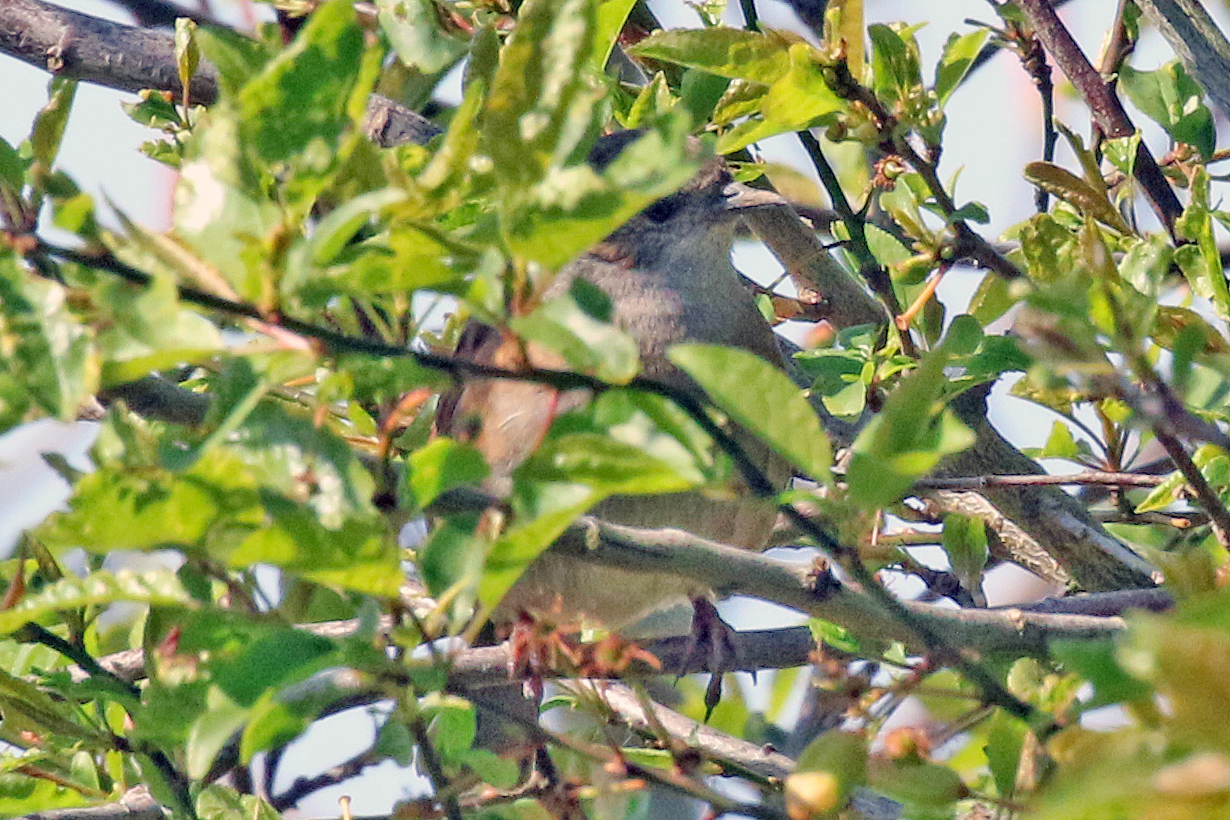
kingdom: Animalia
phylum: Chordata
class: Aves
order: Passeriformes
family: Prunellidae
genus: Prunella
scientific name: Prunella modularis
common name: Dunnock
